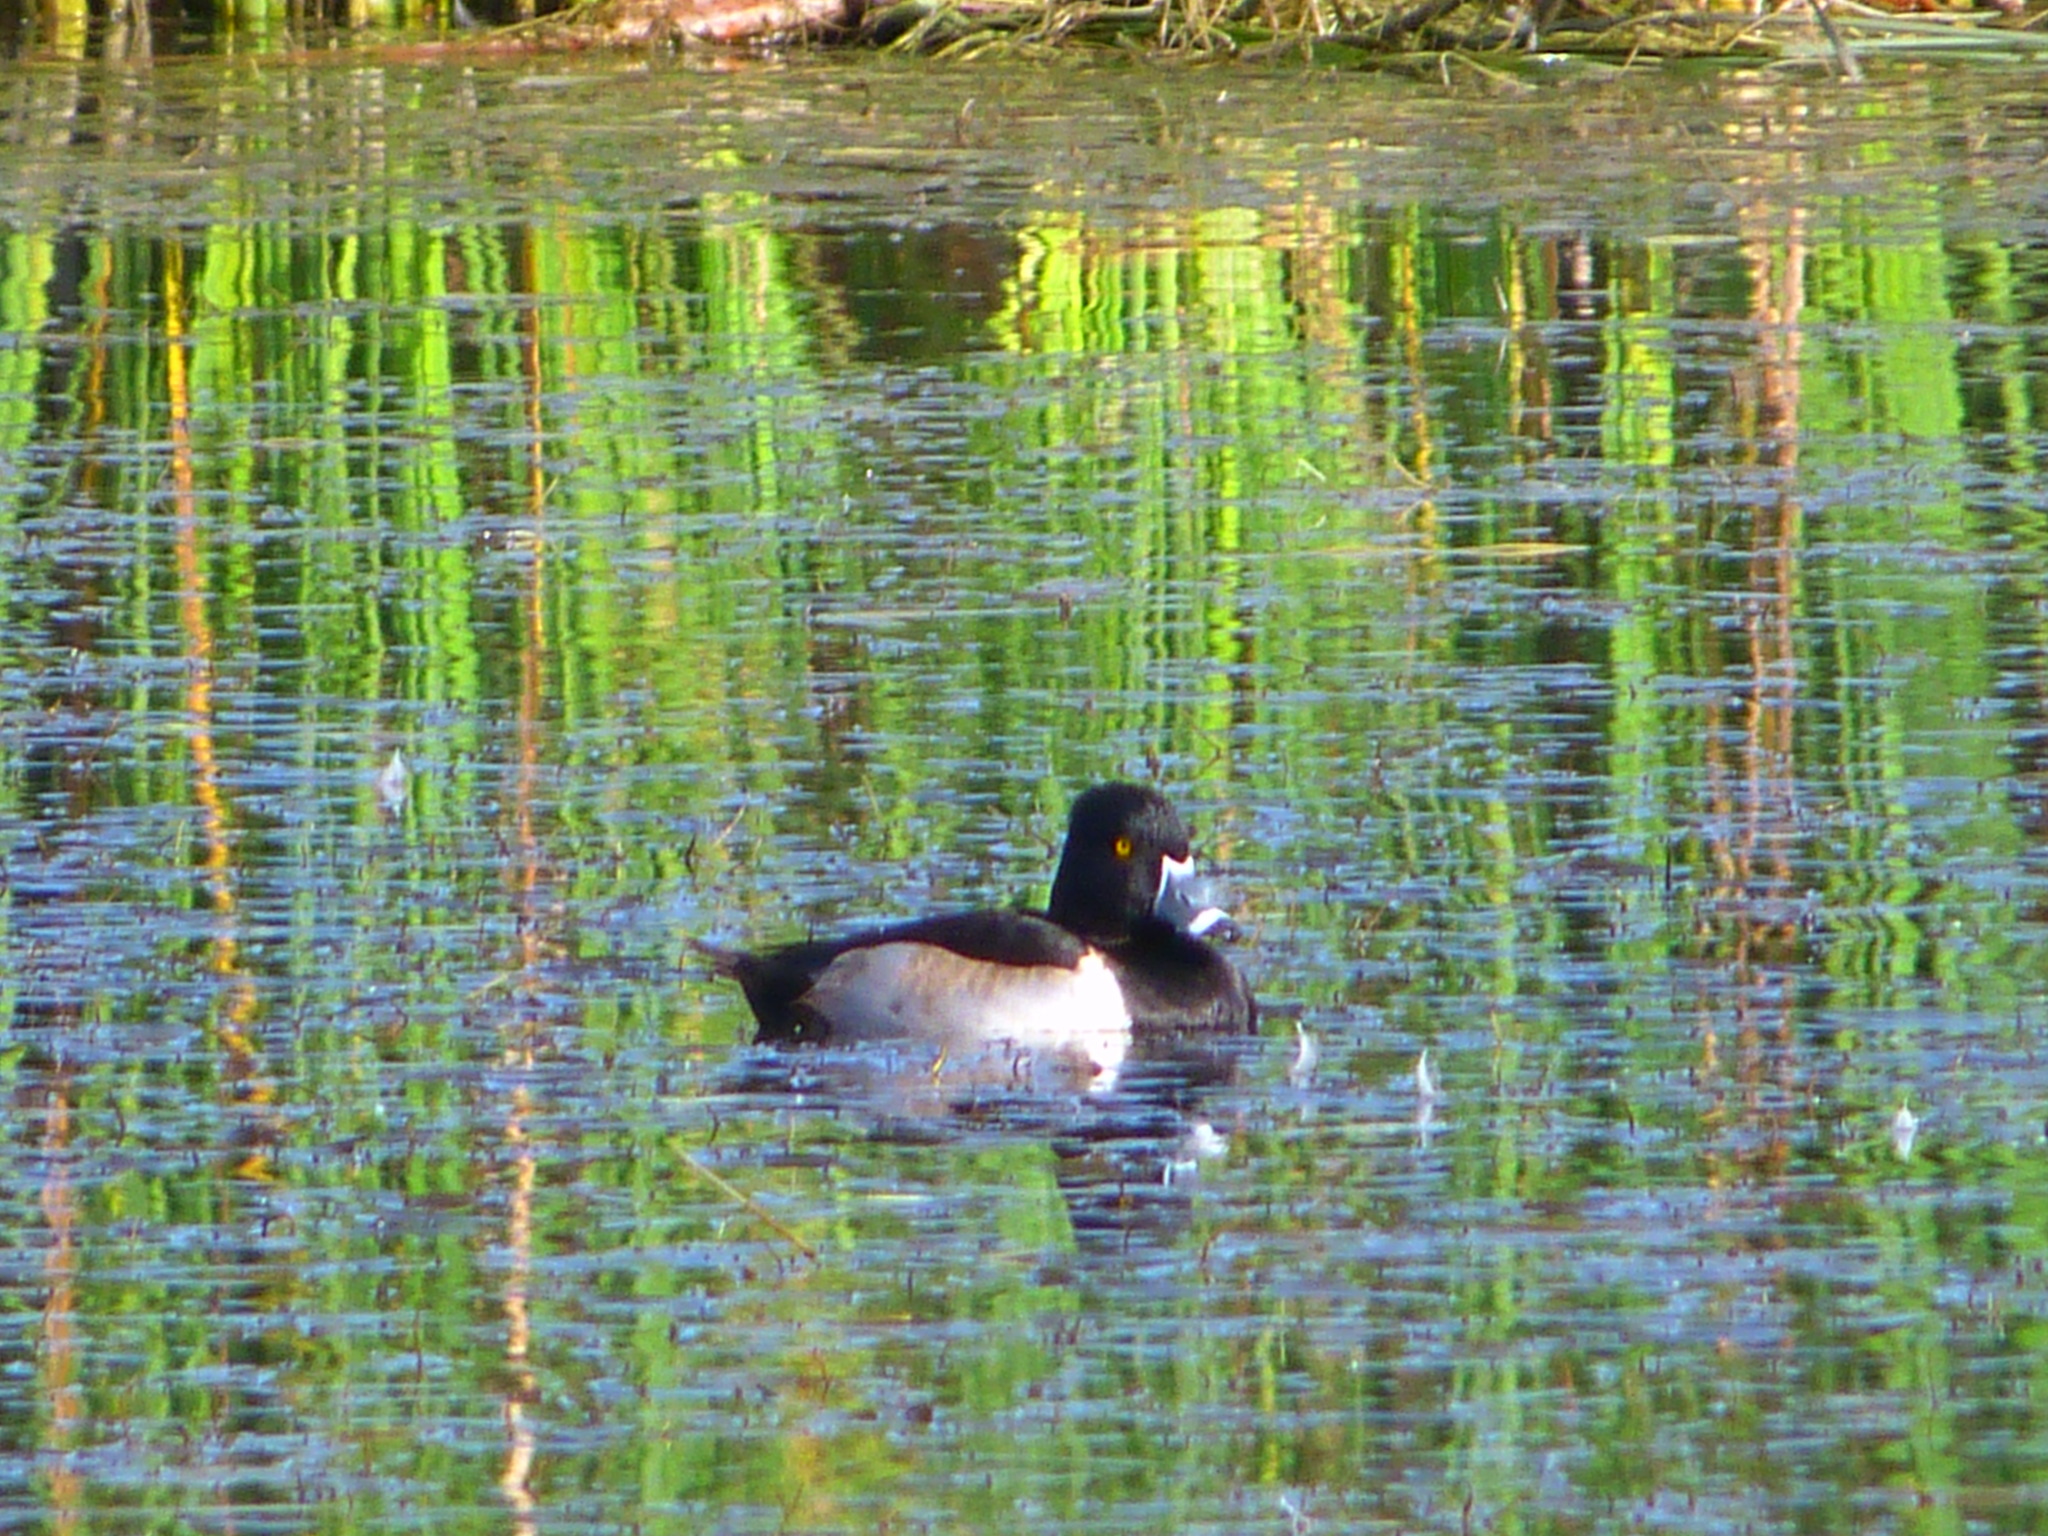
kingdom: Animalia
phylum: Chordata
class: Aves
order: Anseriformes
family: Anatidae
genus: Aythya
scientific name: Aythya collaris
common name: Ring-necked duck
